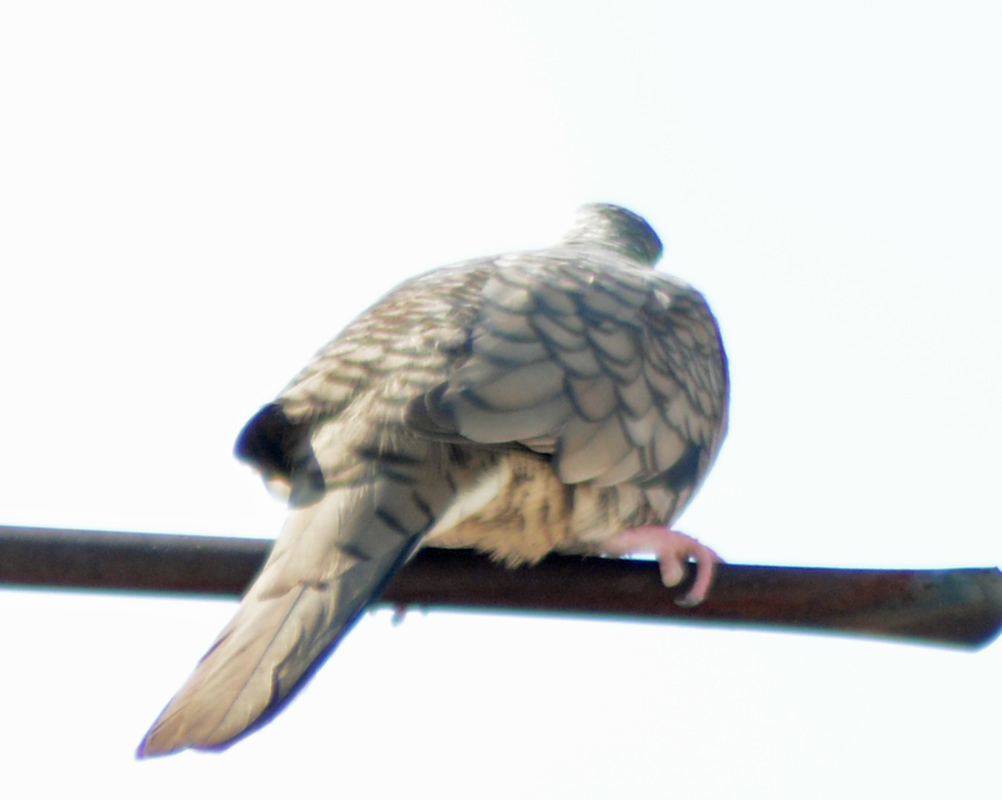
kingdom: Animalia
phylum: Chordata
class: Aves
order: Columbiformes
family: Columbidae
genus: Columbina
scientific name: Columbina inca
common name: Inca dove
